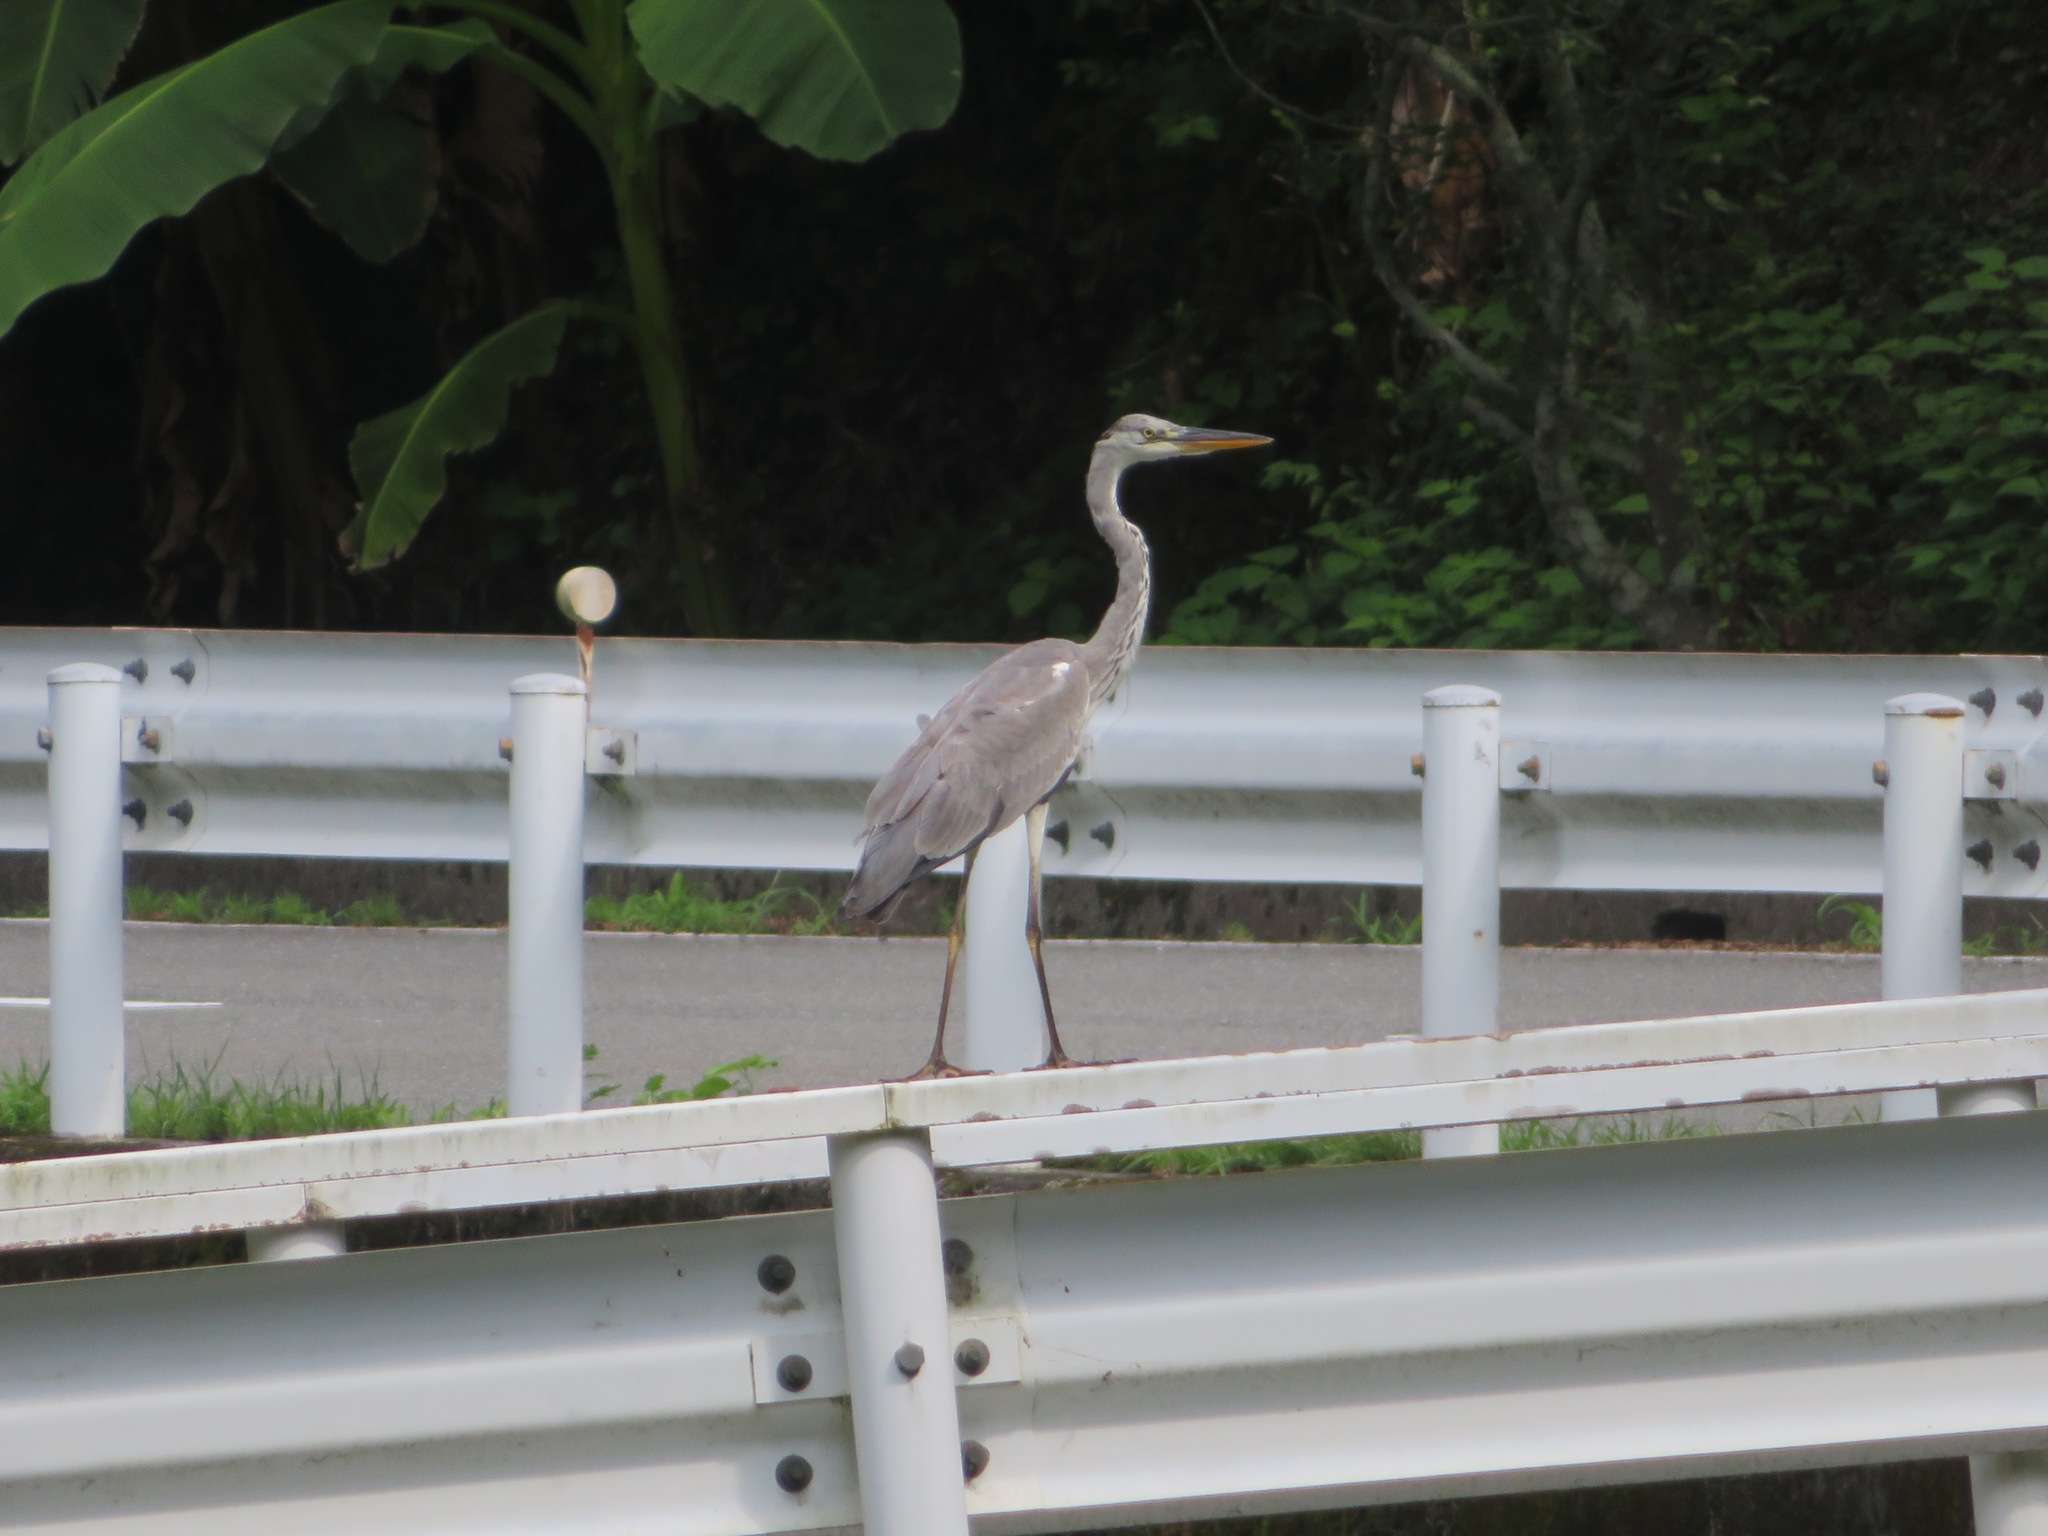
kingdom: Animalia
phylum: Chordata
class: Aves
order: Pelecaniformes
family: Ardeidae
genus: Ardea
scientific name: Ardea cinerea
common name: Grey heron
